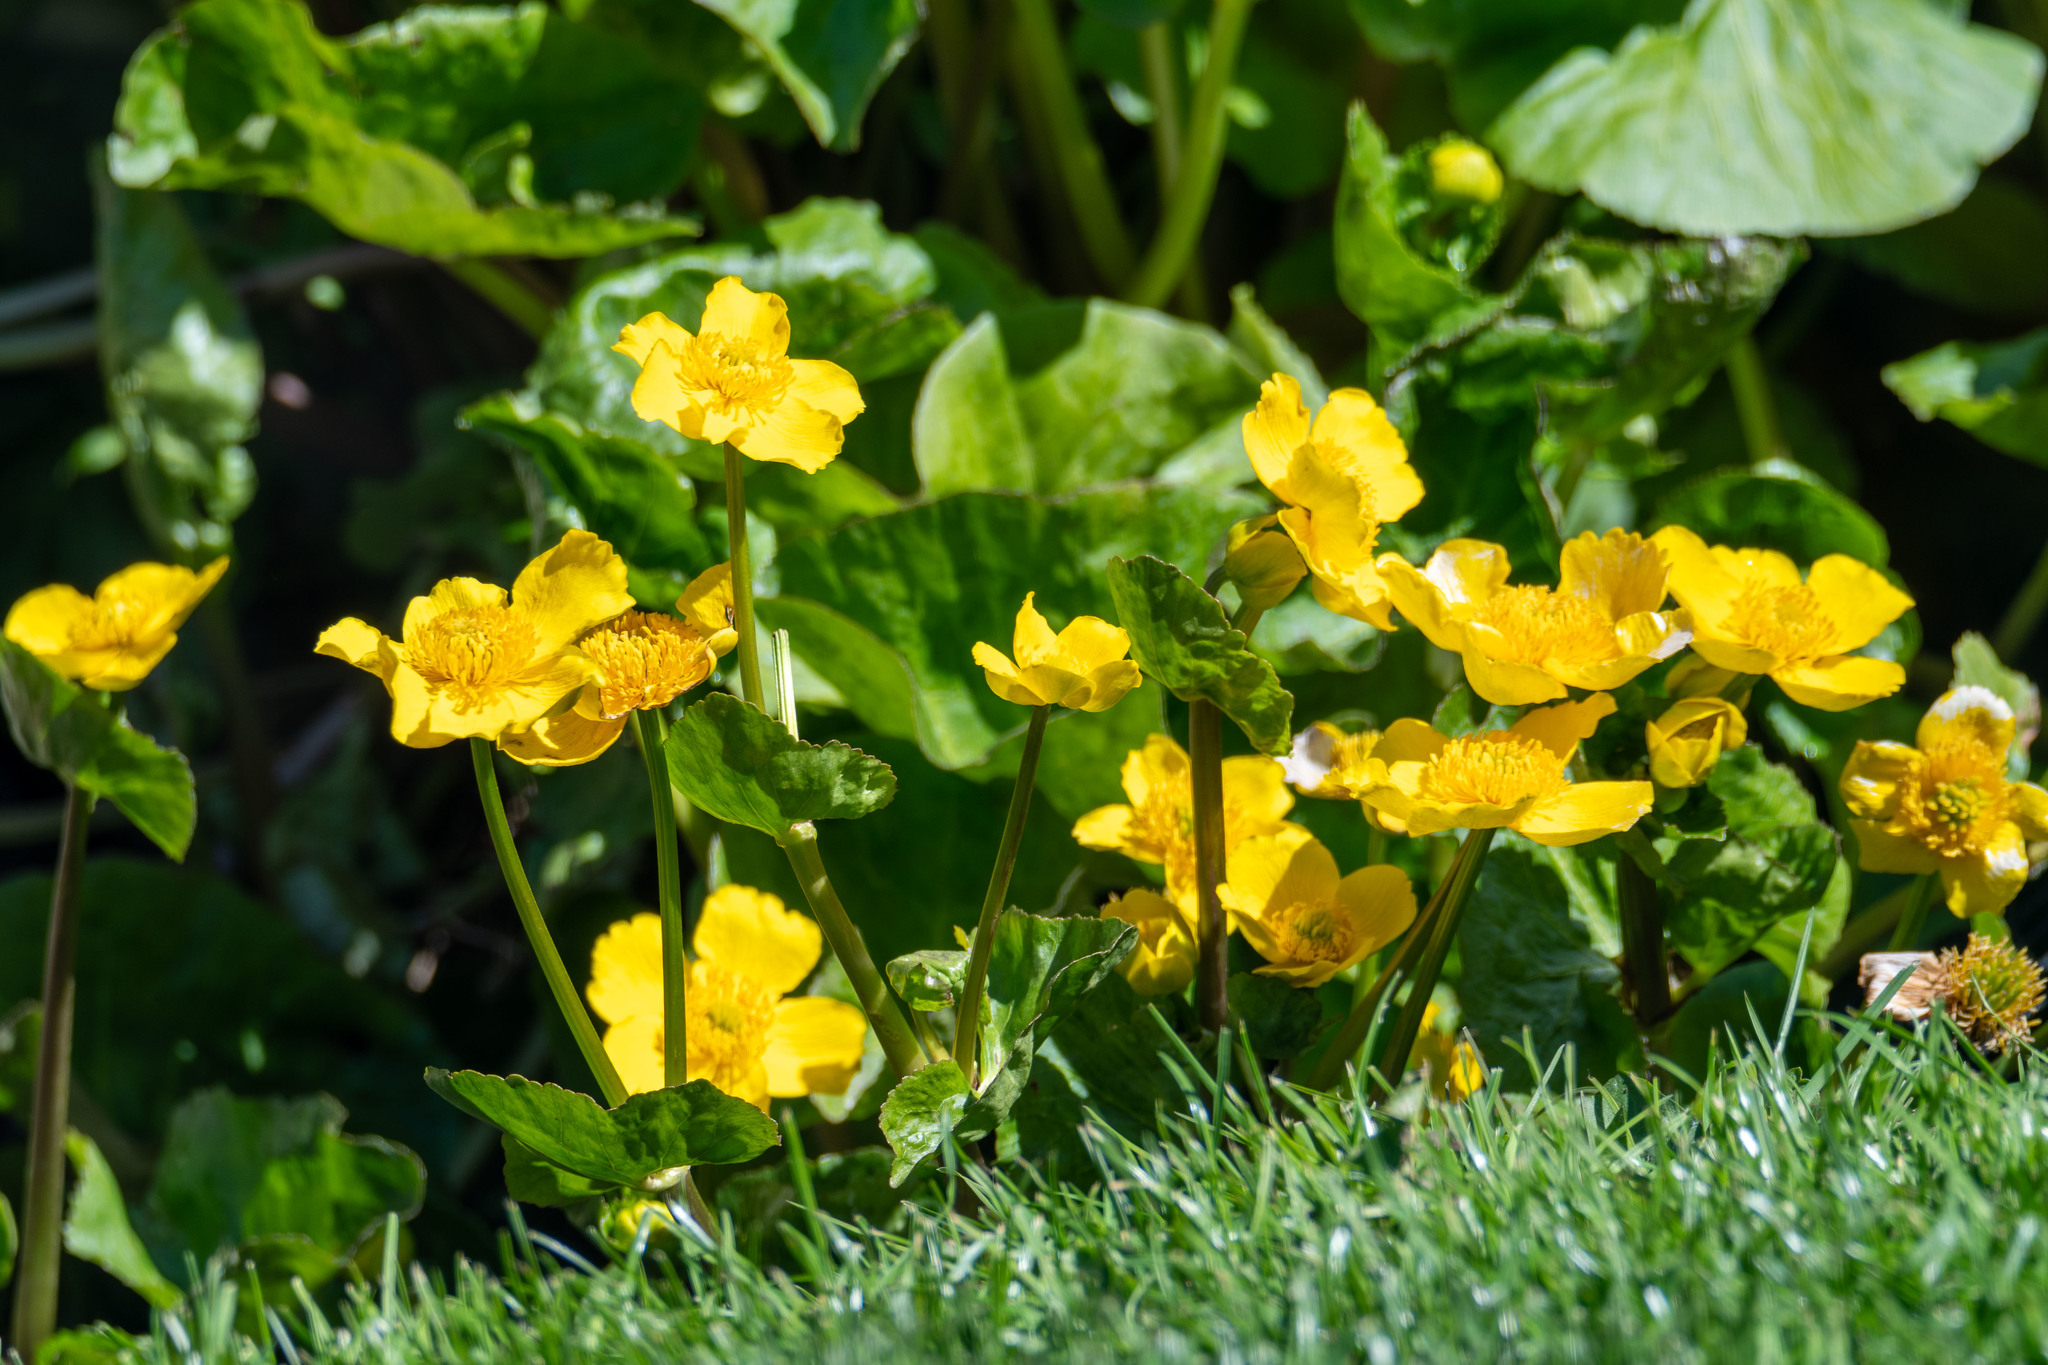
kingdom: Plantae
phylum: Tracheophyta
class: Magnoliopsida
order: Ranunculales
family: Ranunculaceae
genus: Caltha
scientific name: Caltha palustris
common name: Marsh marigold
